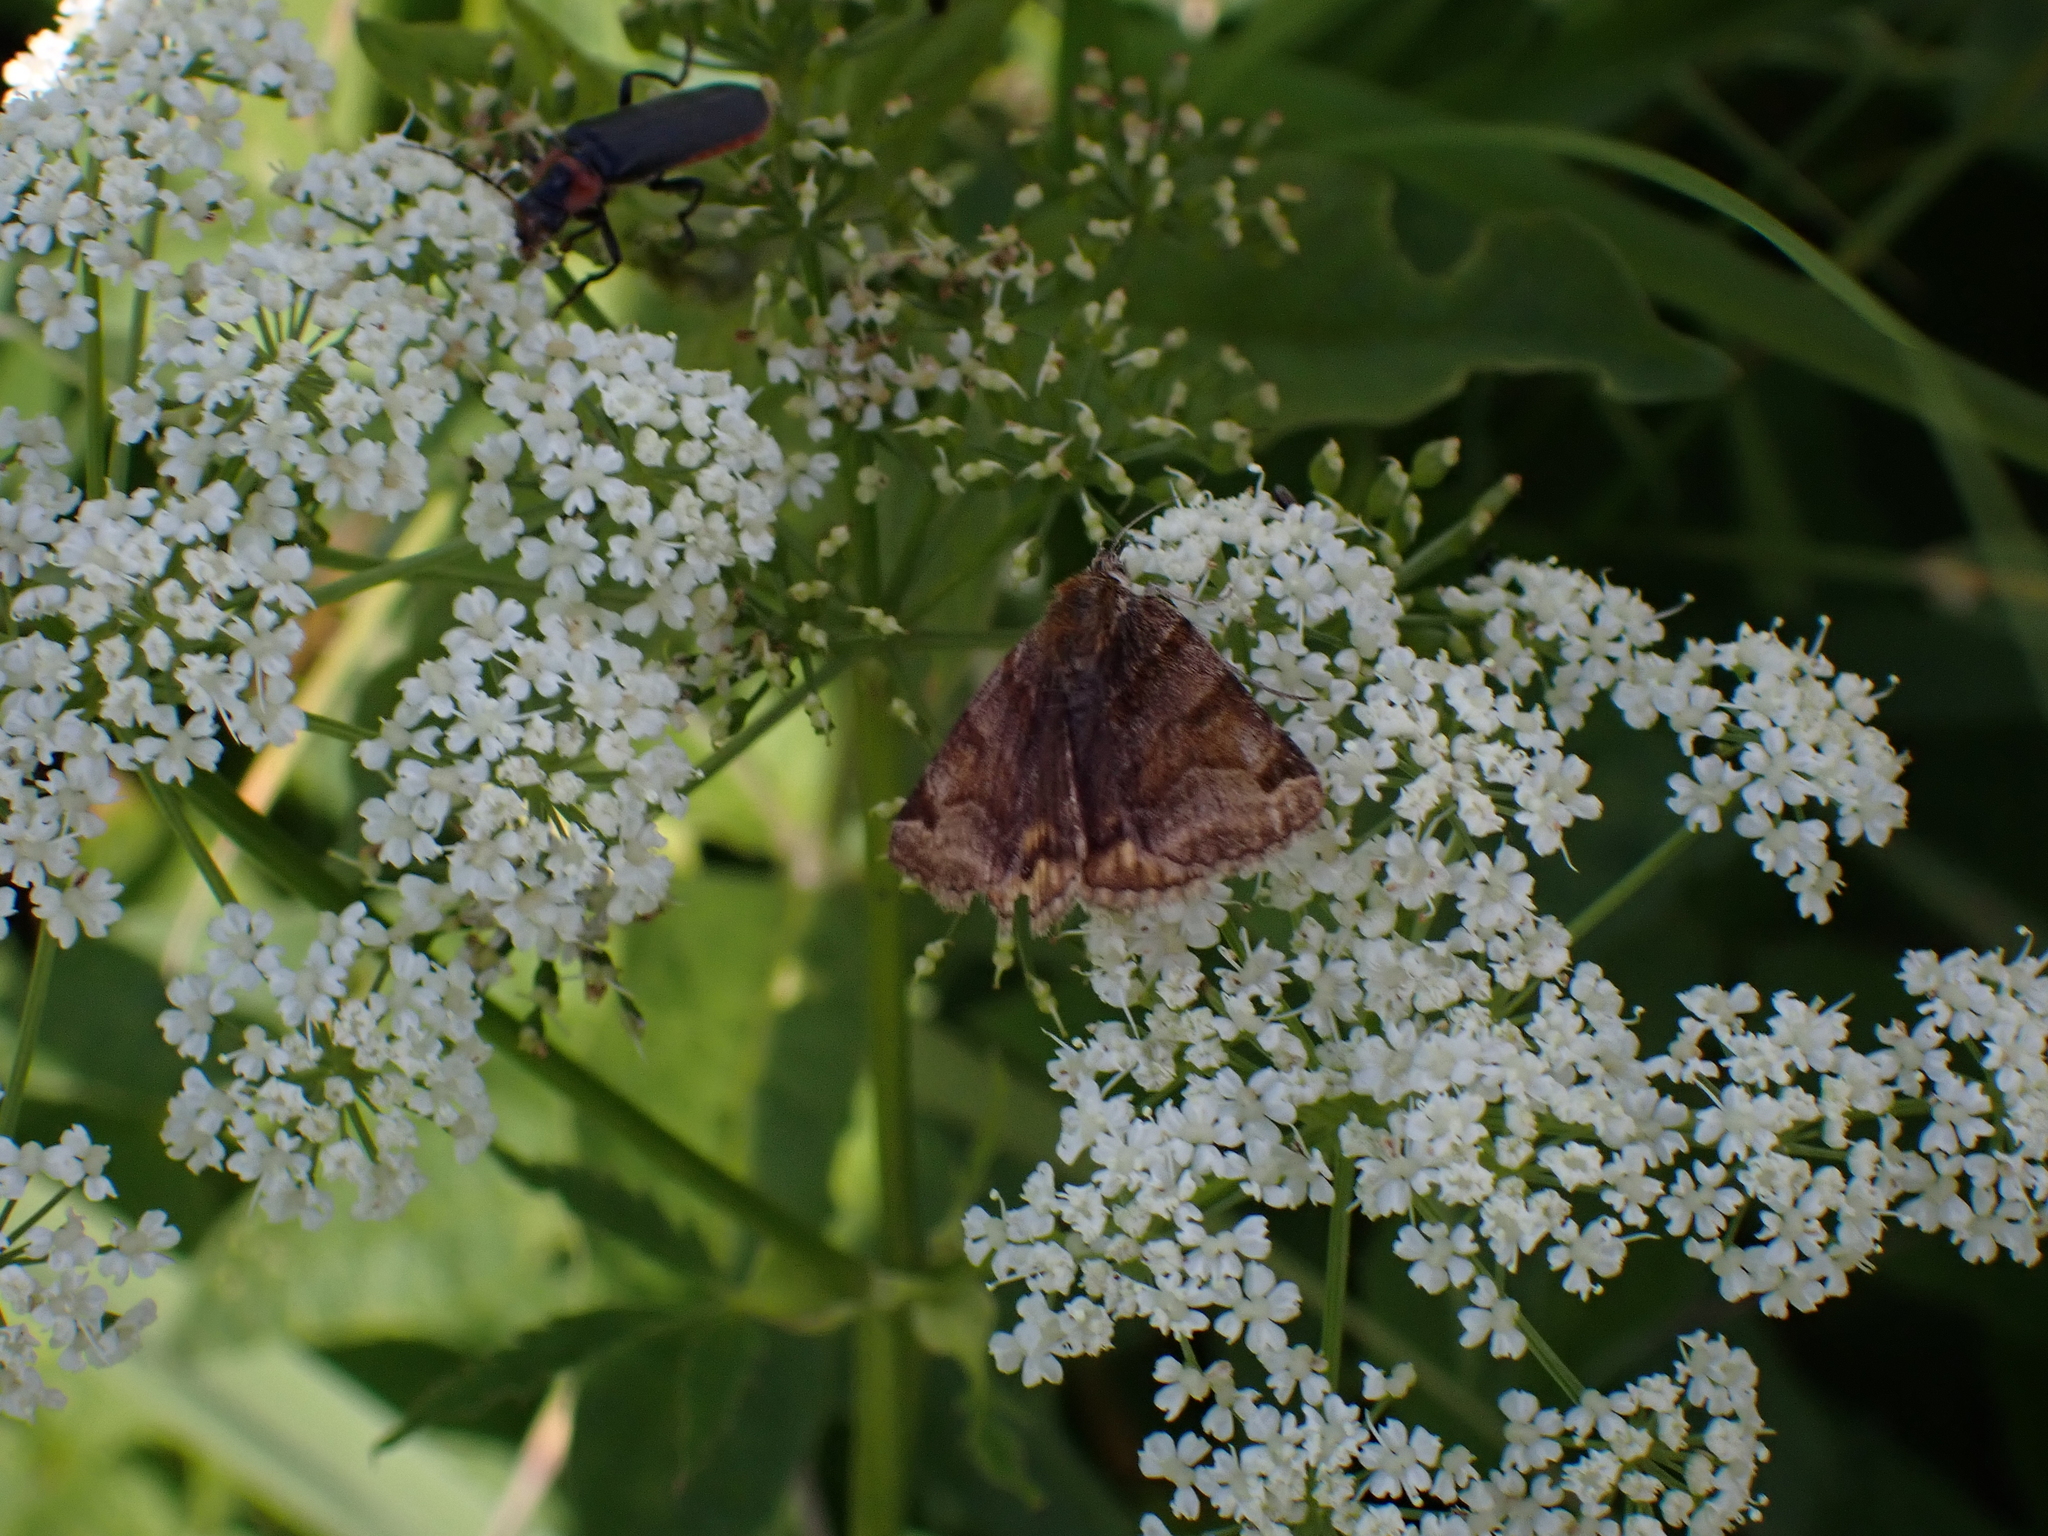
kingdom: Animalia
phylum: Arthropoda
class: Insecta
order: Lepidoptera
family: Erebidae
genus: Euclidia
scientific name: Euclidia glyphica
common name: Burnet companion
